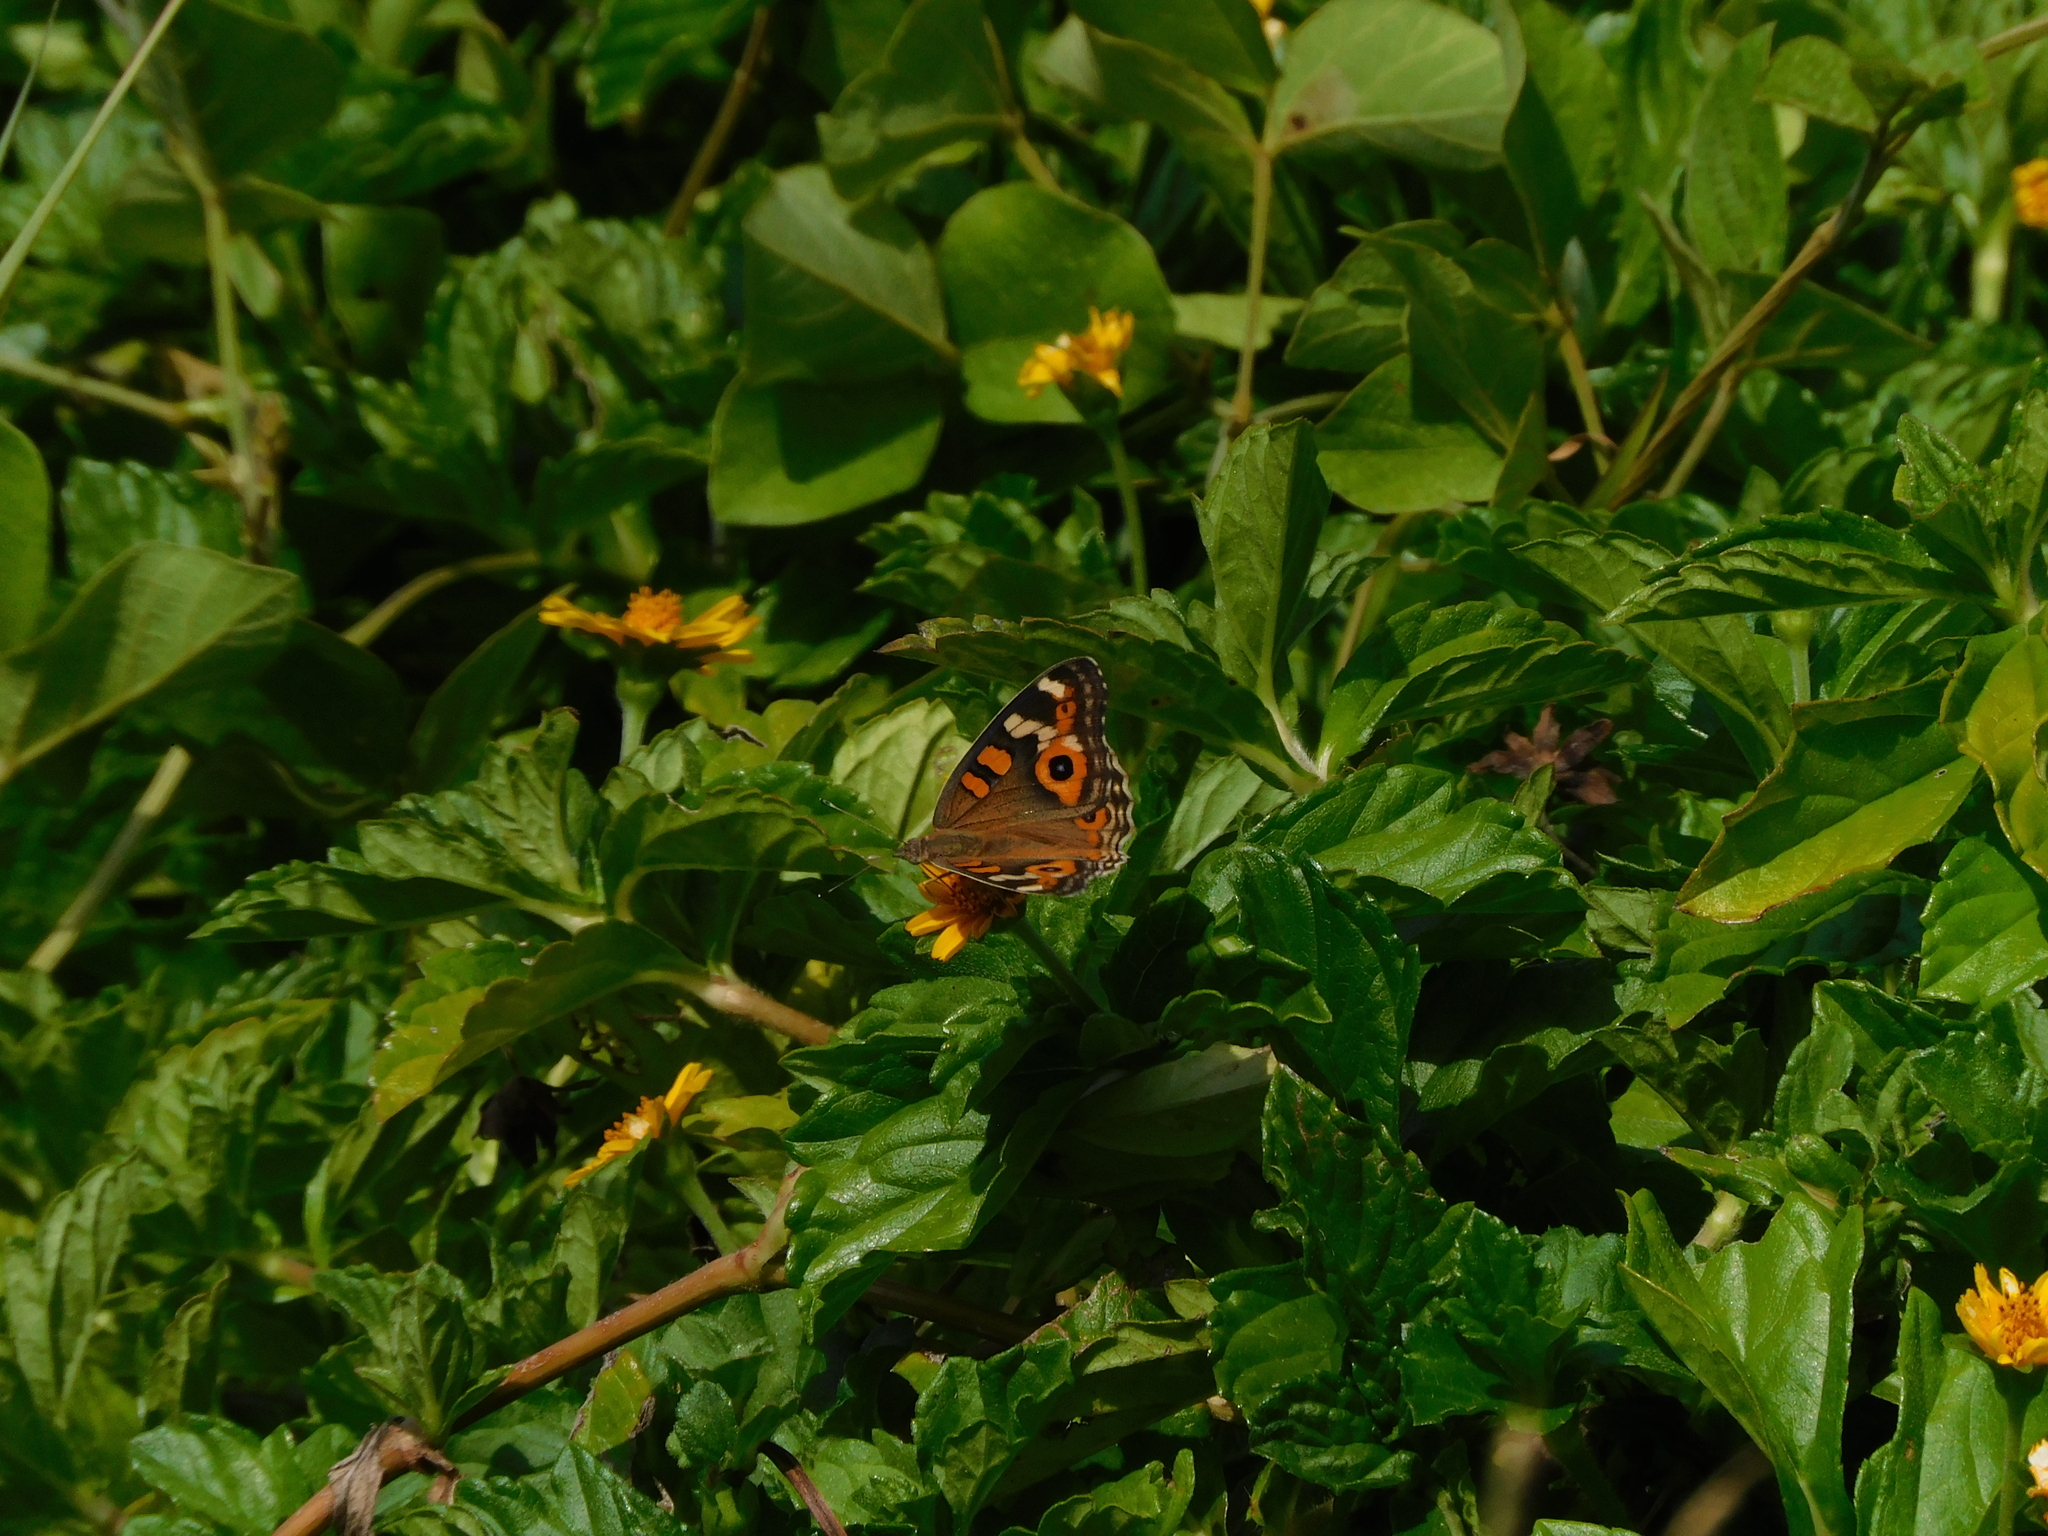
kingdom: Animalia
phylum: Arthropoda
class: Insecta
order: Lepidoptera
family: Nymphalidae
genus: Junonia
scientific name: Junonia villida
